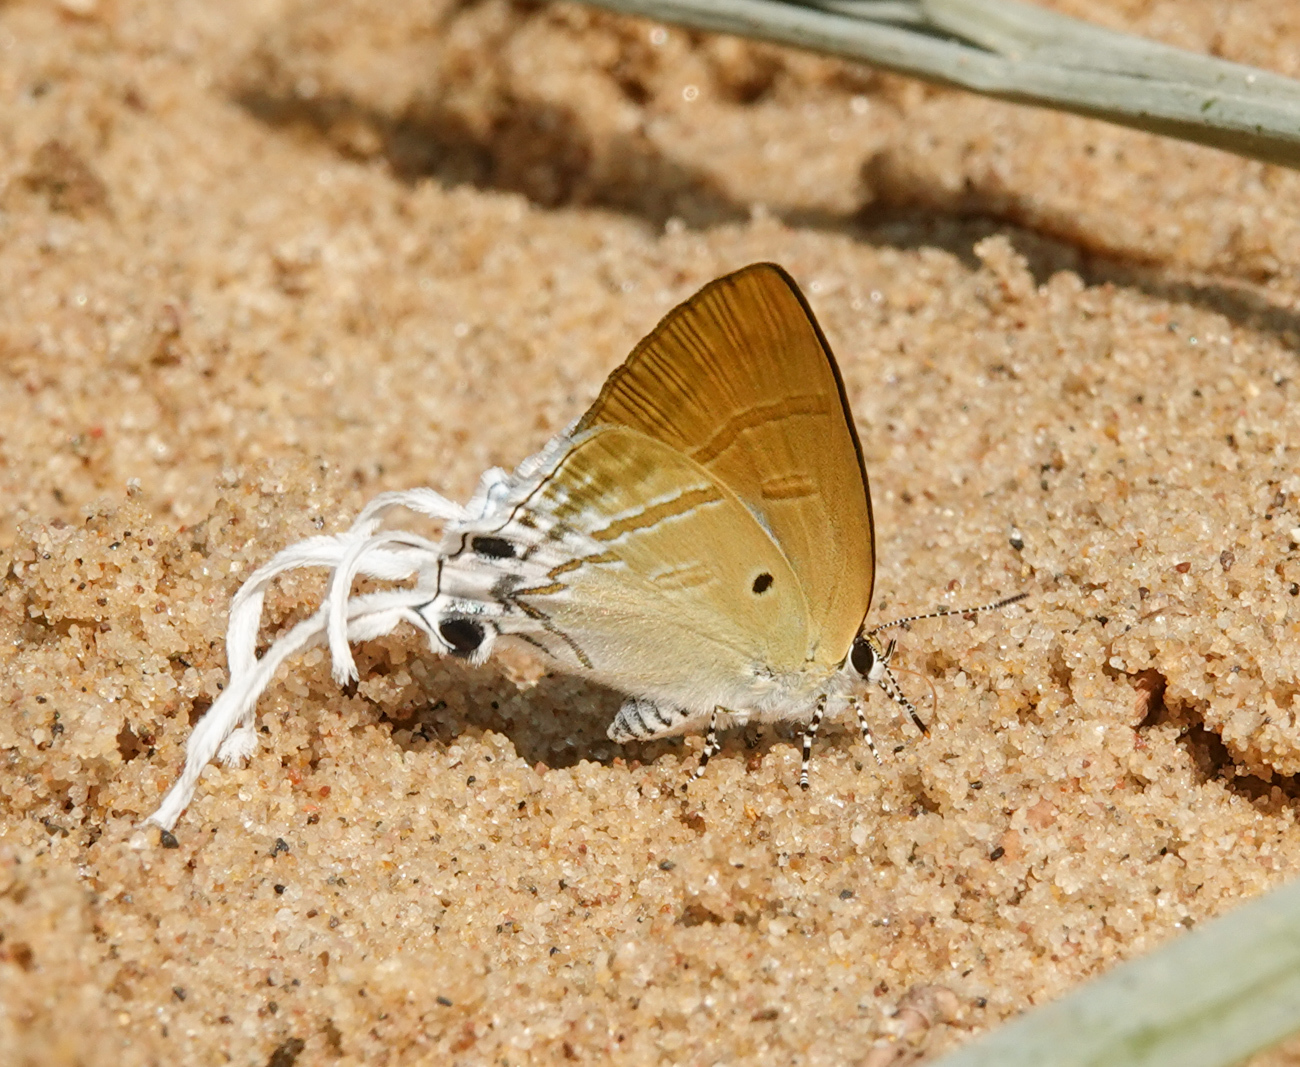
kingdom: Animalia
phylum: Arthropoda
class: Insecta
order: Lepidoptera
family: Lycaenidae
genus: Zeltus
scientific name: Zeltus amasa
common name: Fluffy tit
